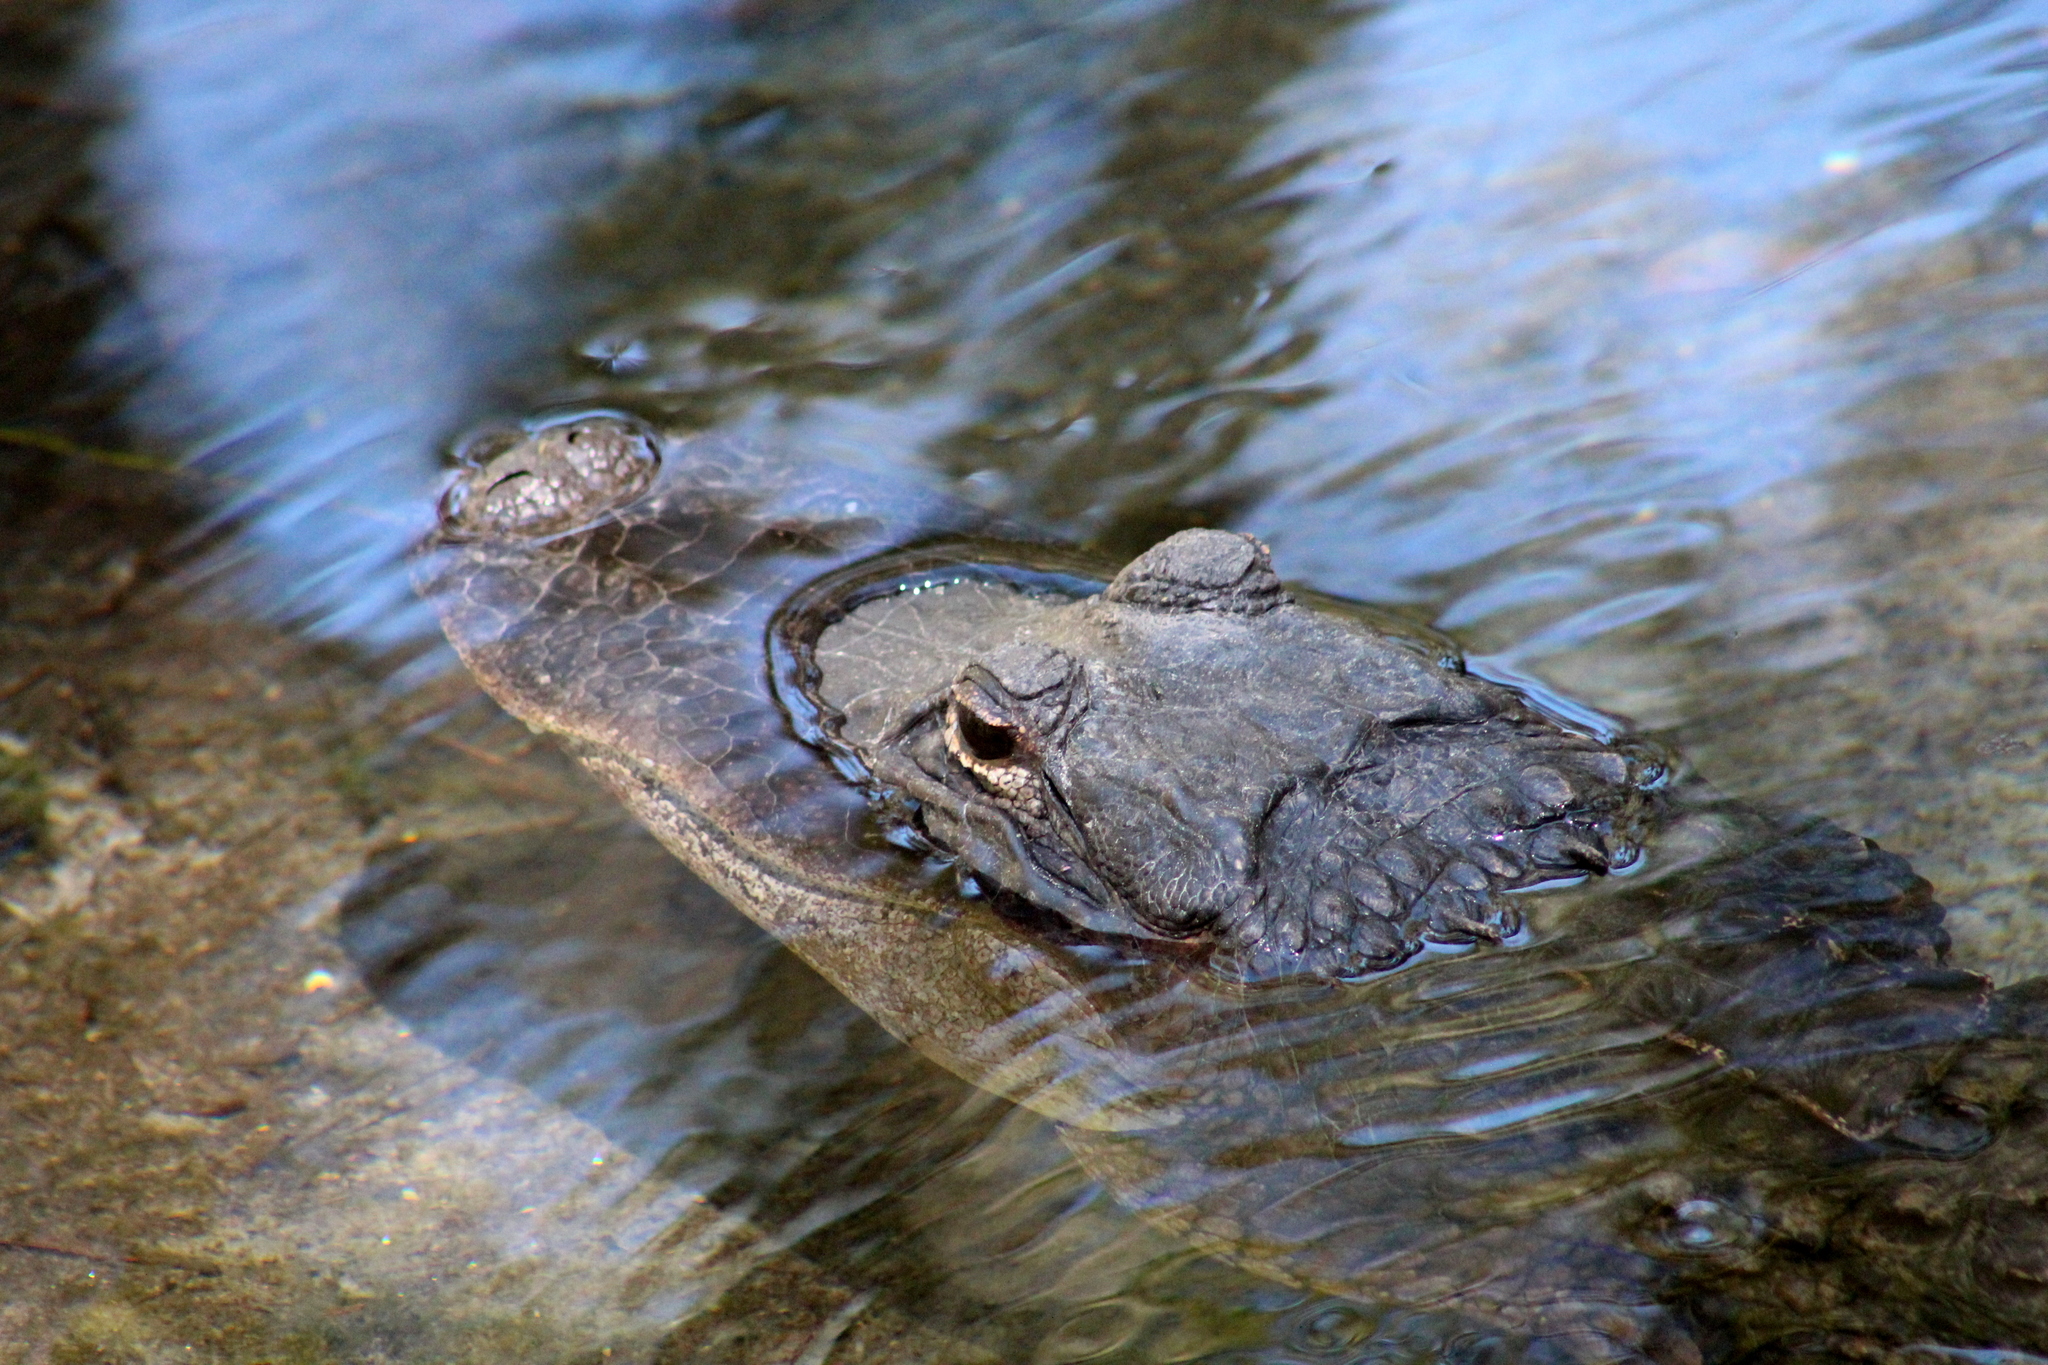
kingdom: Animalia
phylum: Chordata
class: Crocodylia
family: Alligatoridae
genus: Alligator
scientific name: Alligator mississippiensis
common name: American alligator
